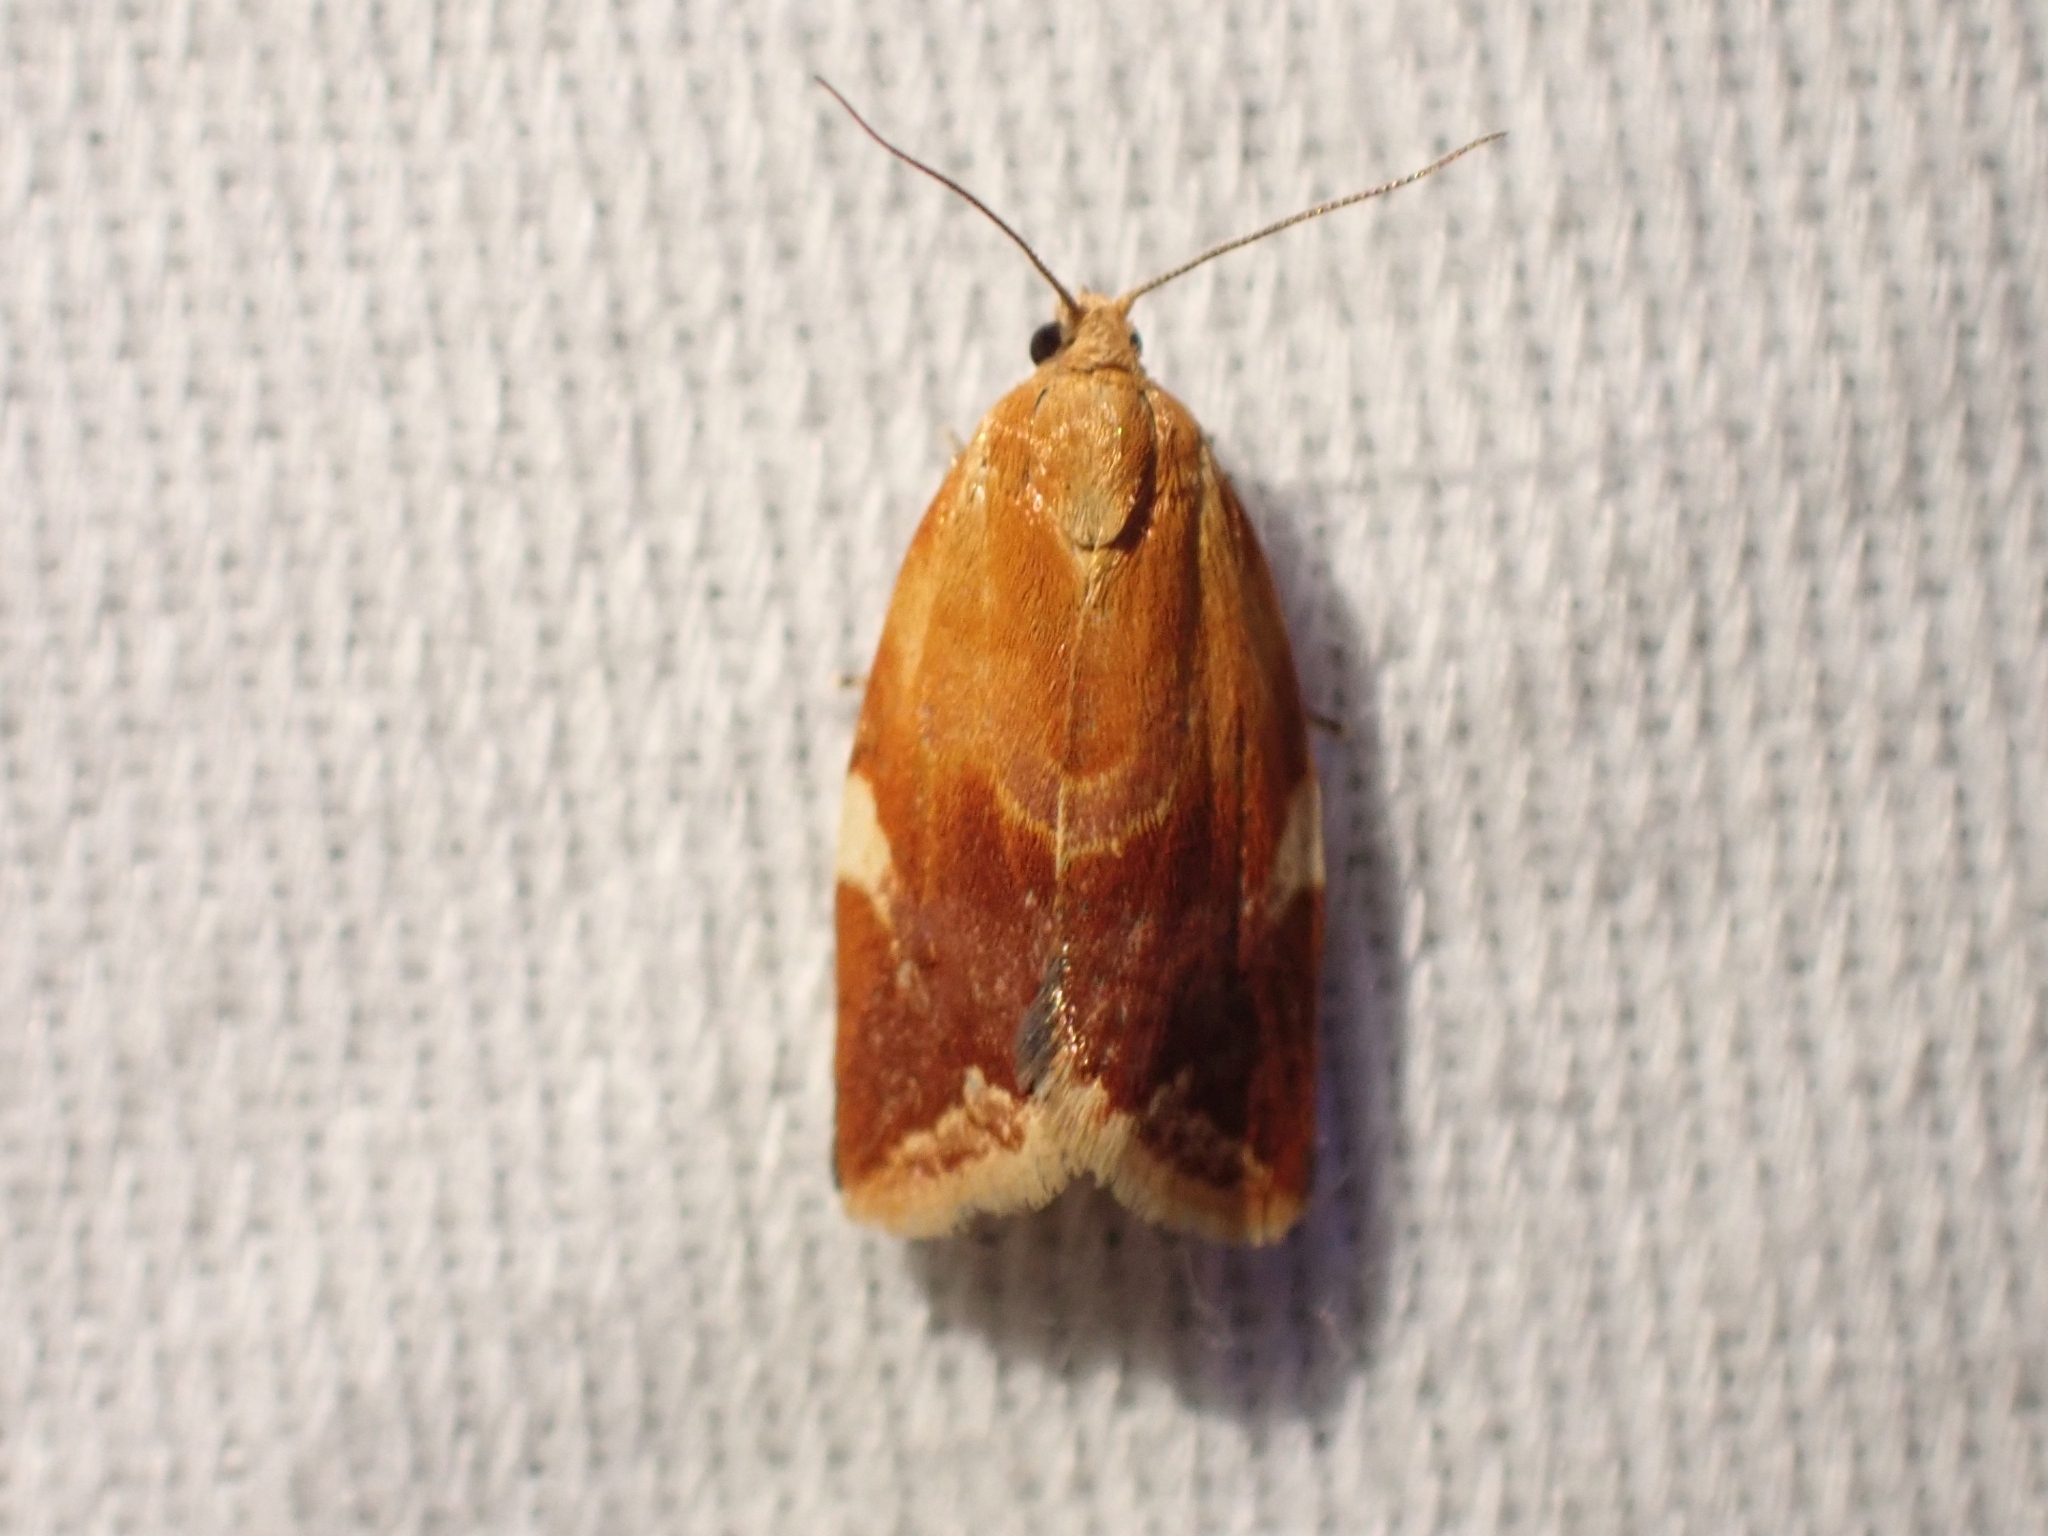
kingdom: Animalia
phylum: Arthropoda
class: Insecta
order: Lepidoptera
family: Tortricidae
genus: Clepsis
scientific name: Clepsis persicana
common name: White triangle tortrix
